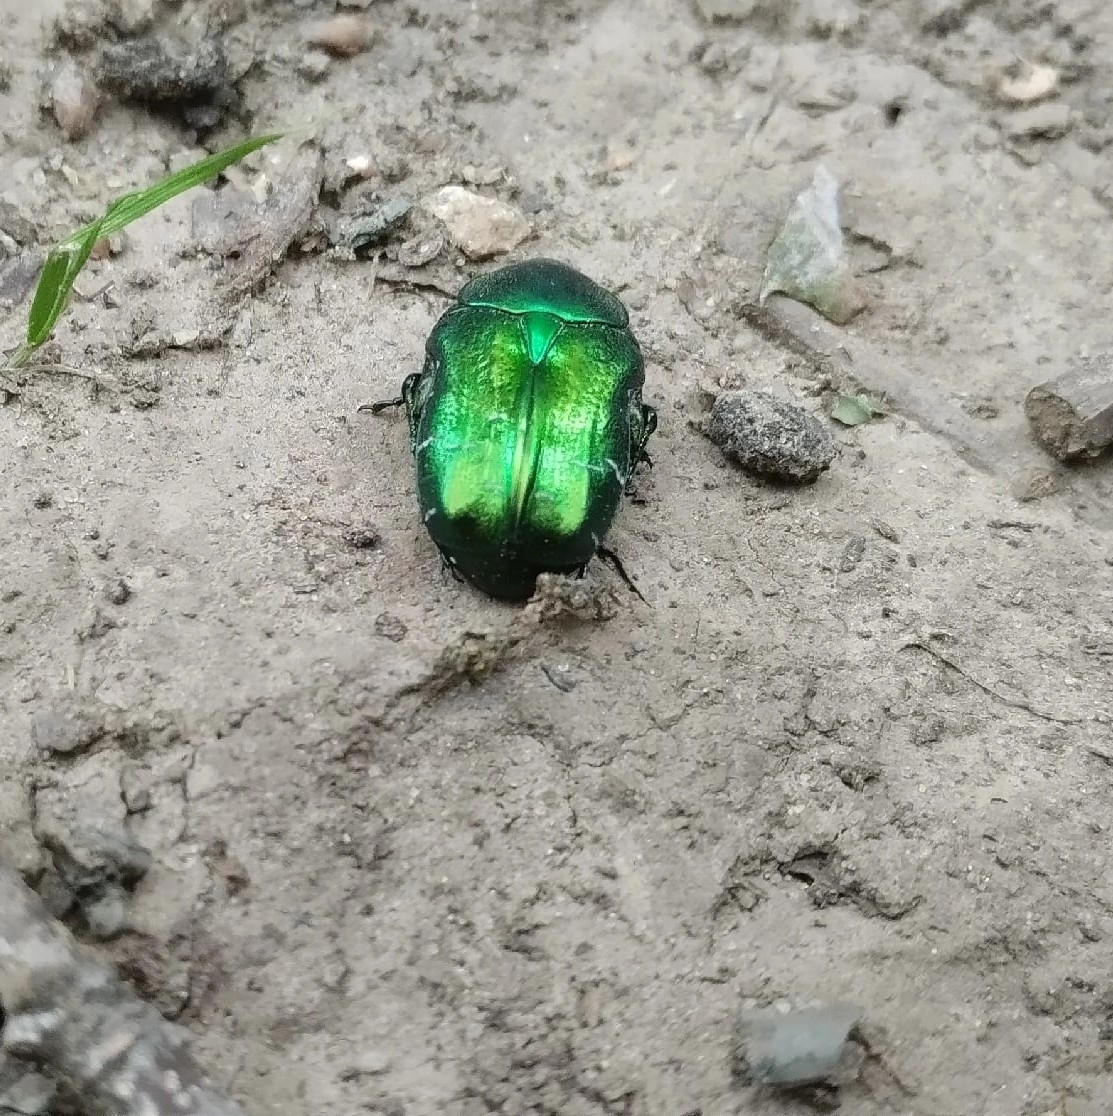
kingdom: Animalia
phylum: Arthropoda
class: Insecta
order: Coleoptera
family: Scarabaeidae
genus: Cetonia
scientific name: Cetonia aurata
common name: Rose chafer
